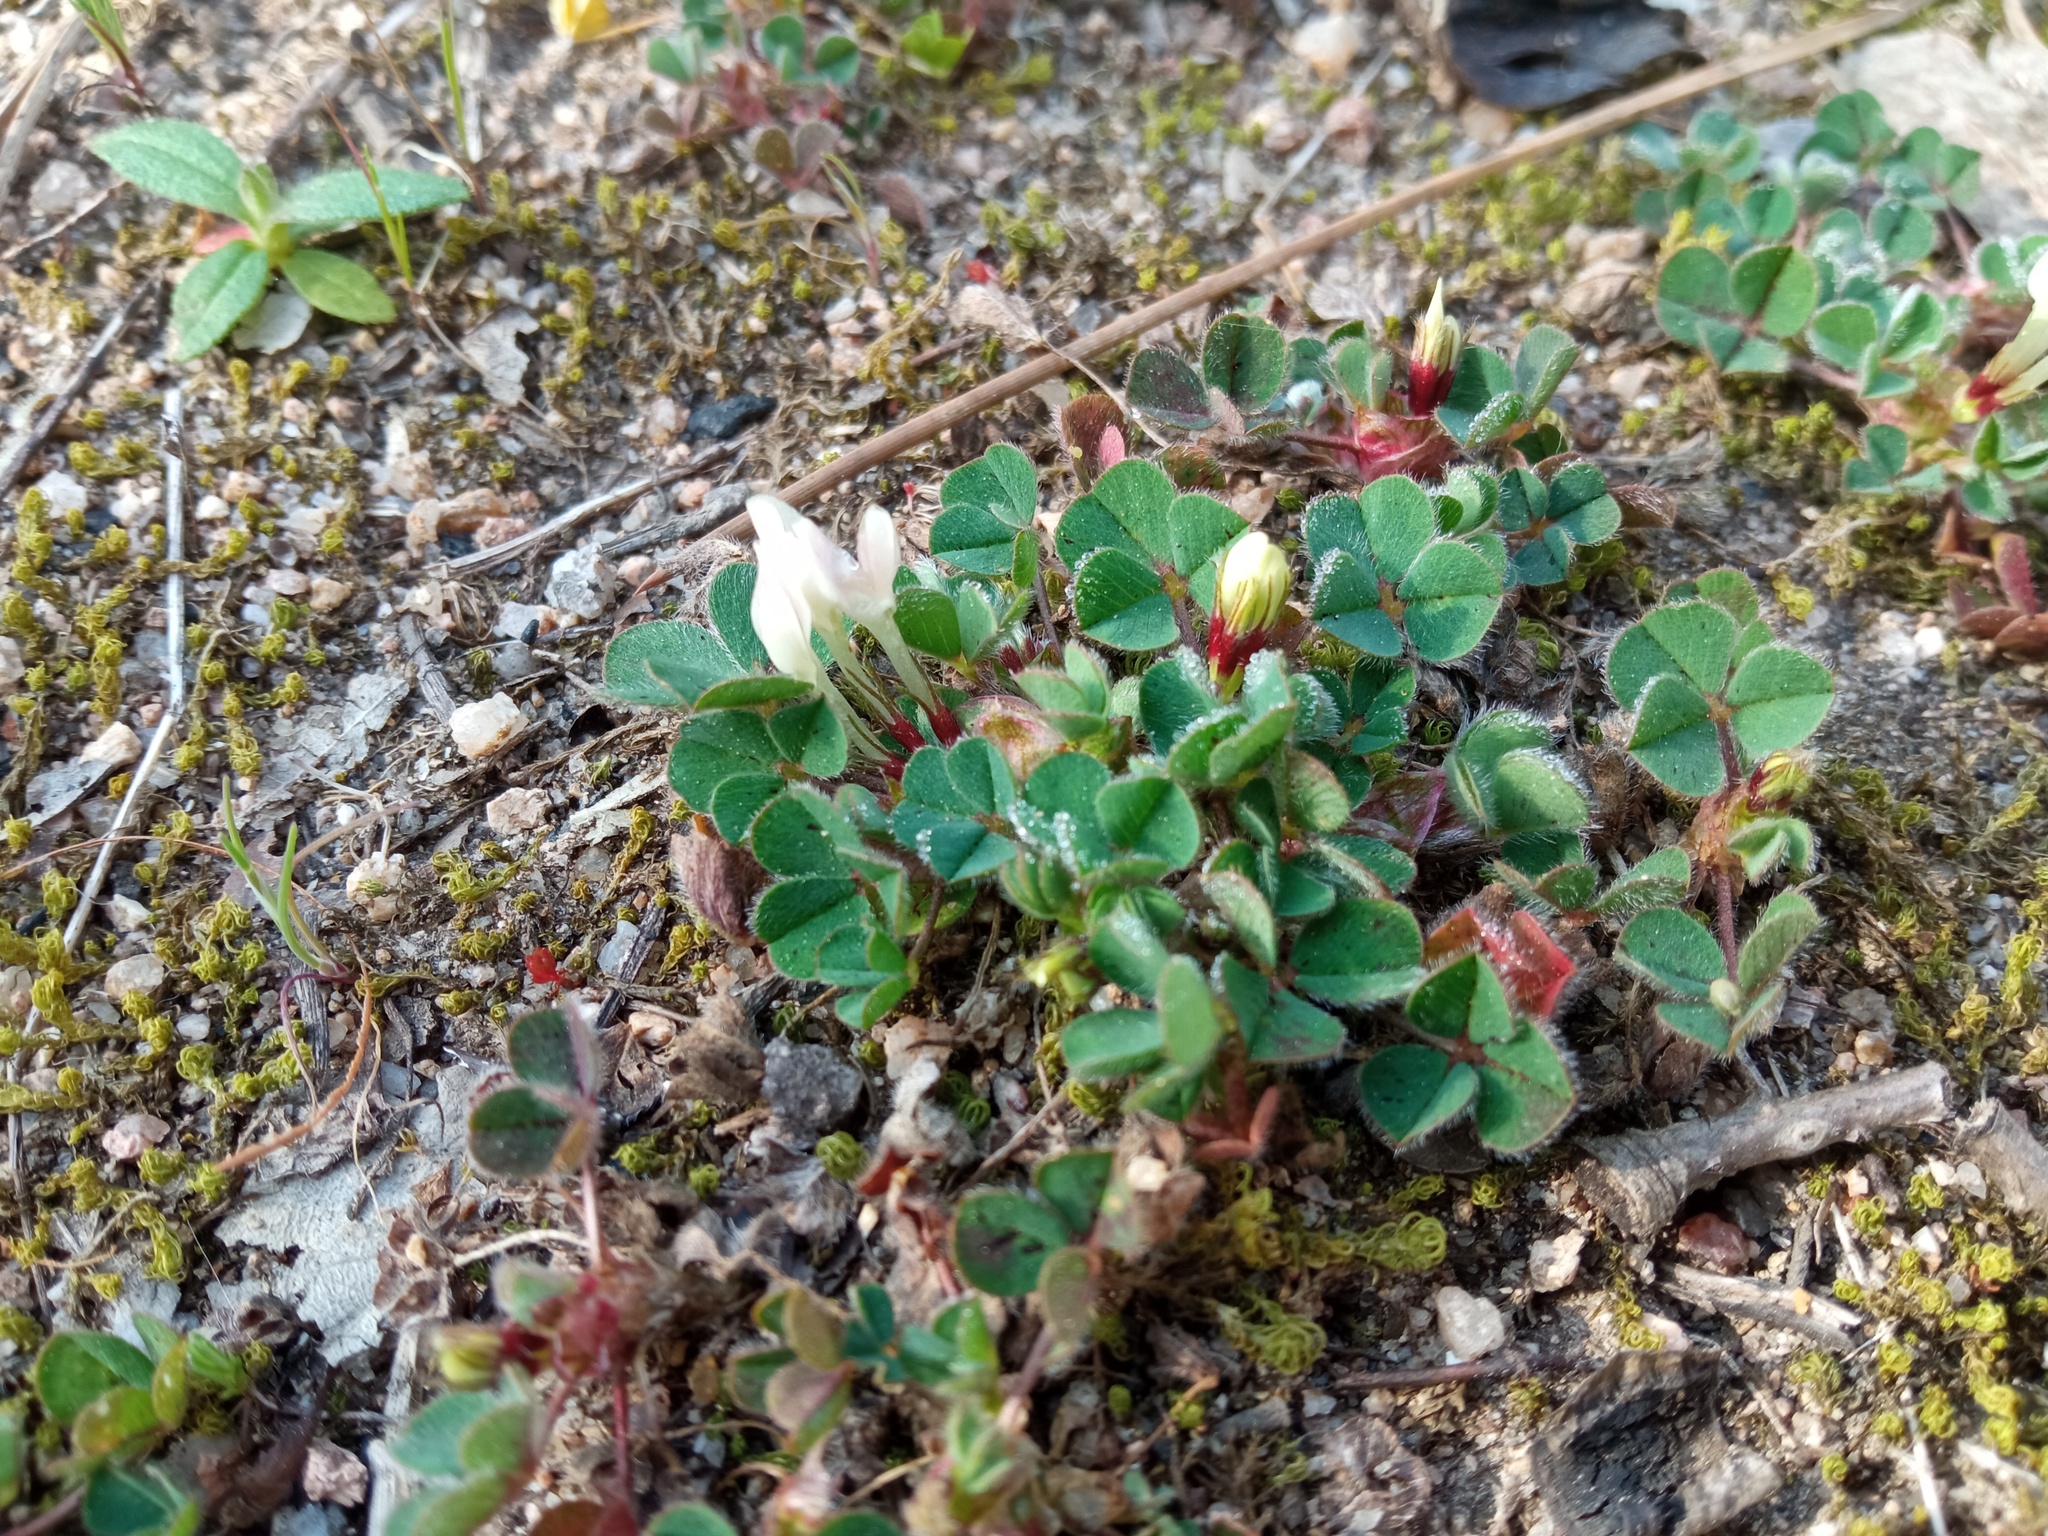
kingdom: Plantae
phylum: Tracheophyta
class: Magnoliopsida
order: Fabales
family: Fabaceae
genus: Trifolium
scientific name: Trifolium subterraneum
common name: Subterranean clover
